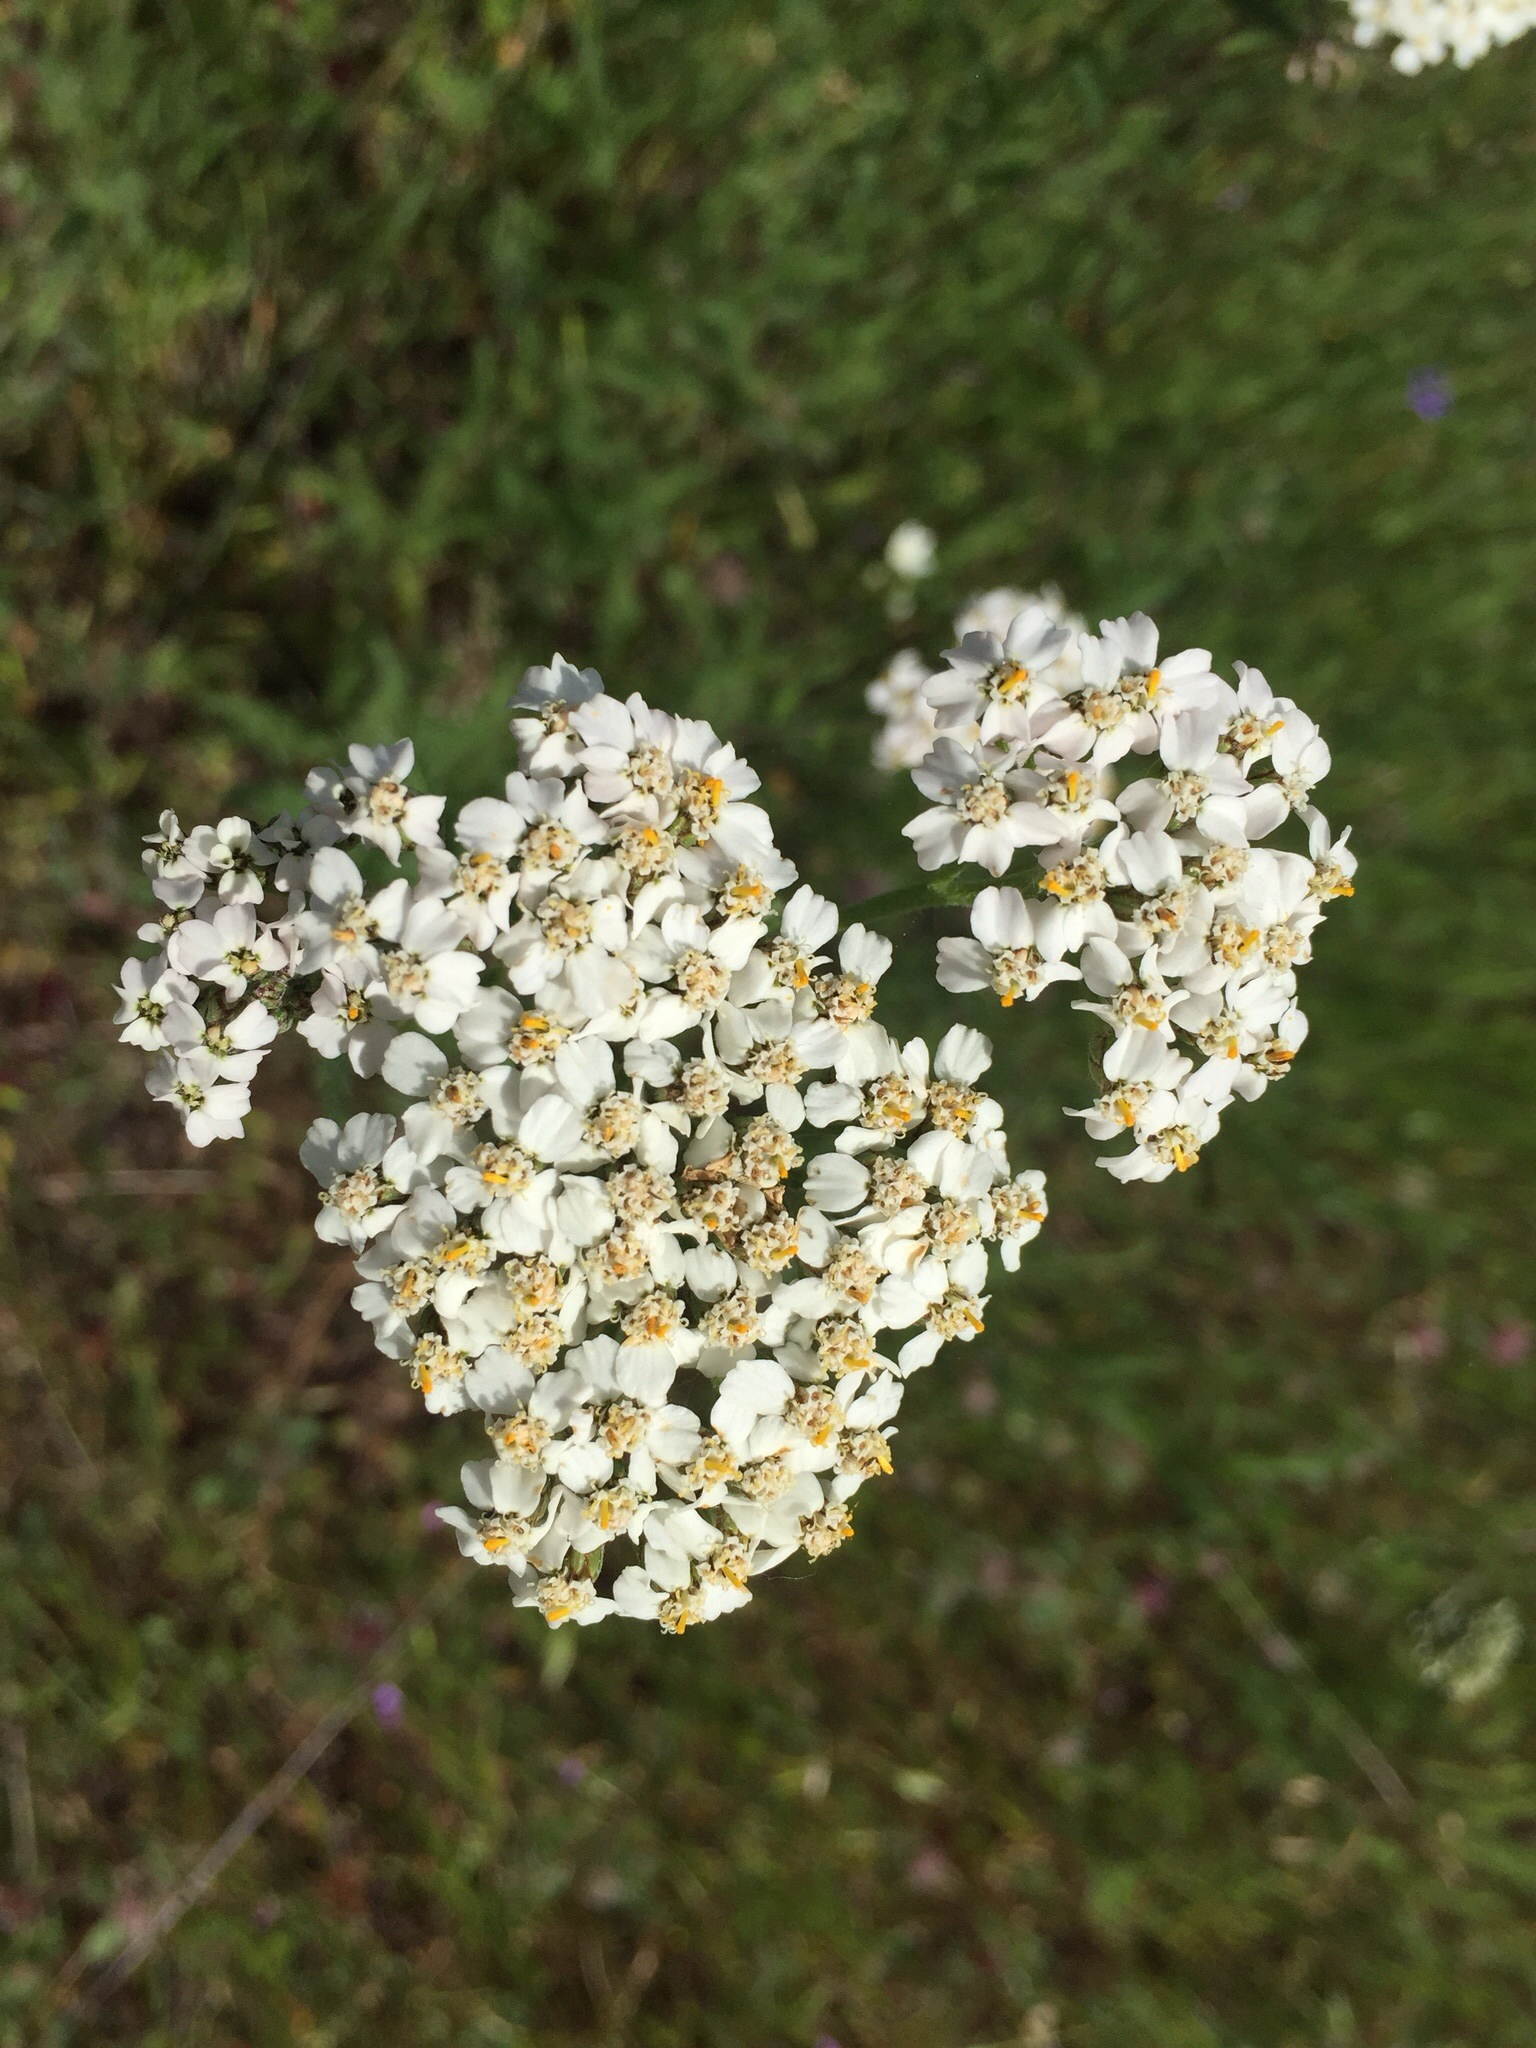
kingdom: Plantae
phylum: Tracheophyta
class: Magnoliopsida
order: Asterales
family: Asteraceae
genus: Achillea
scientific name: Achillea millefolium
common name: Yarrow
